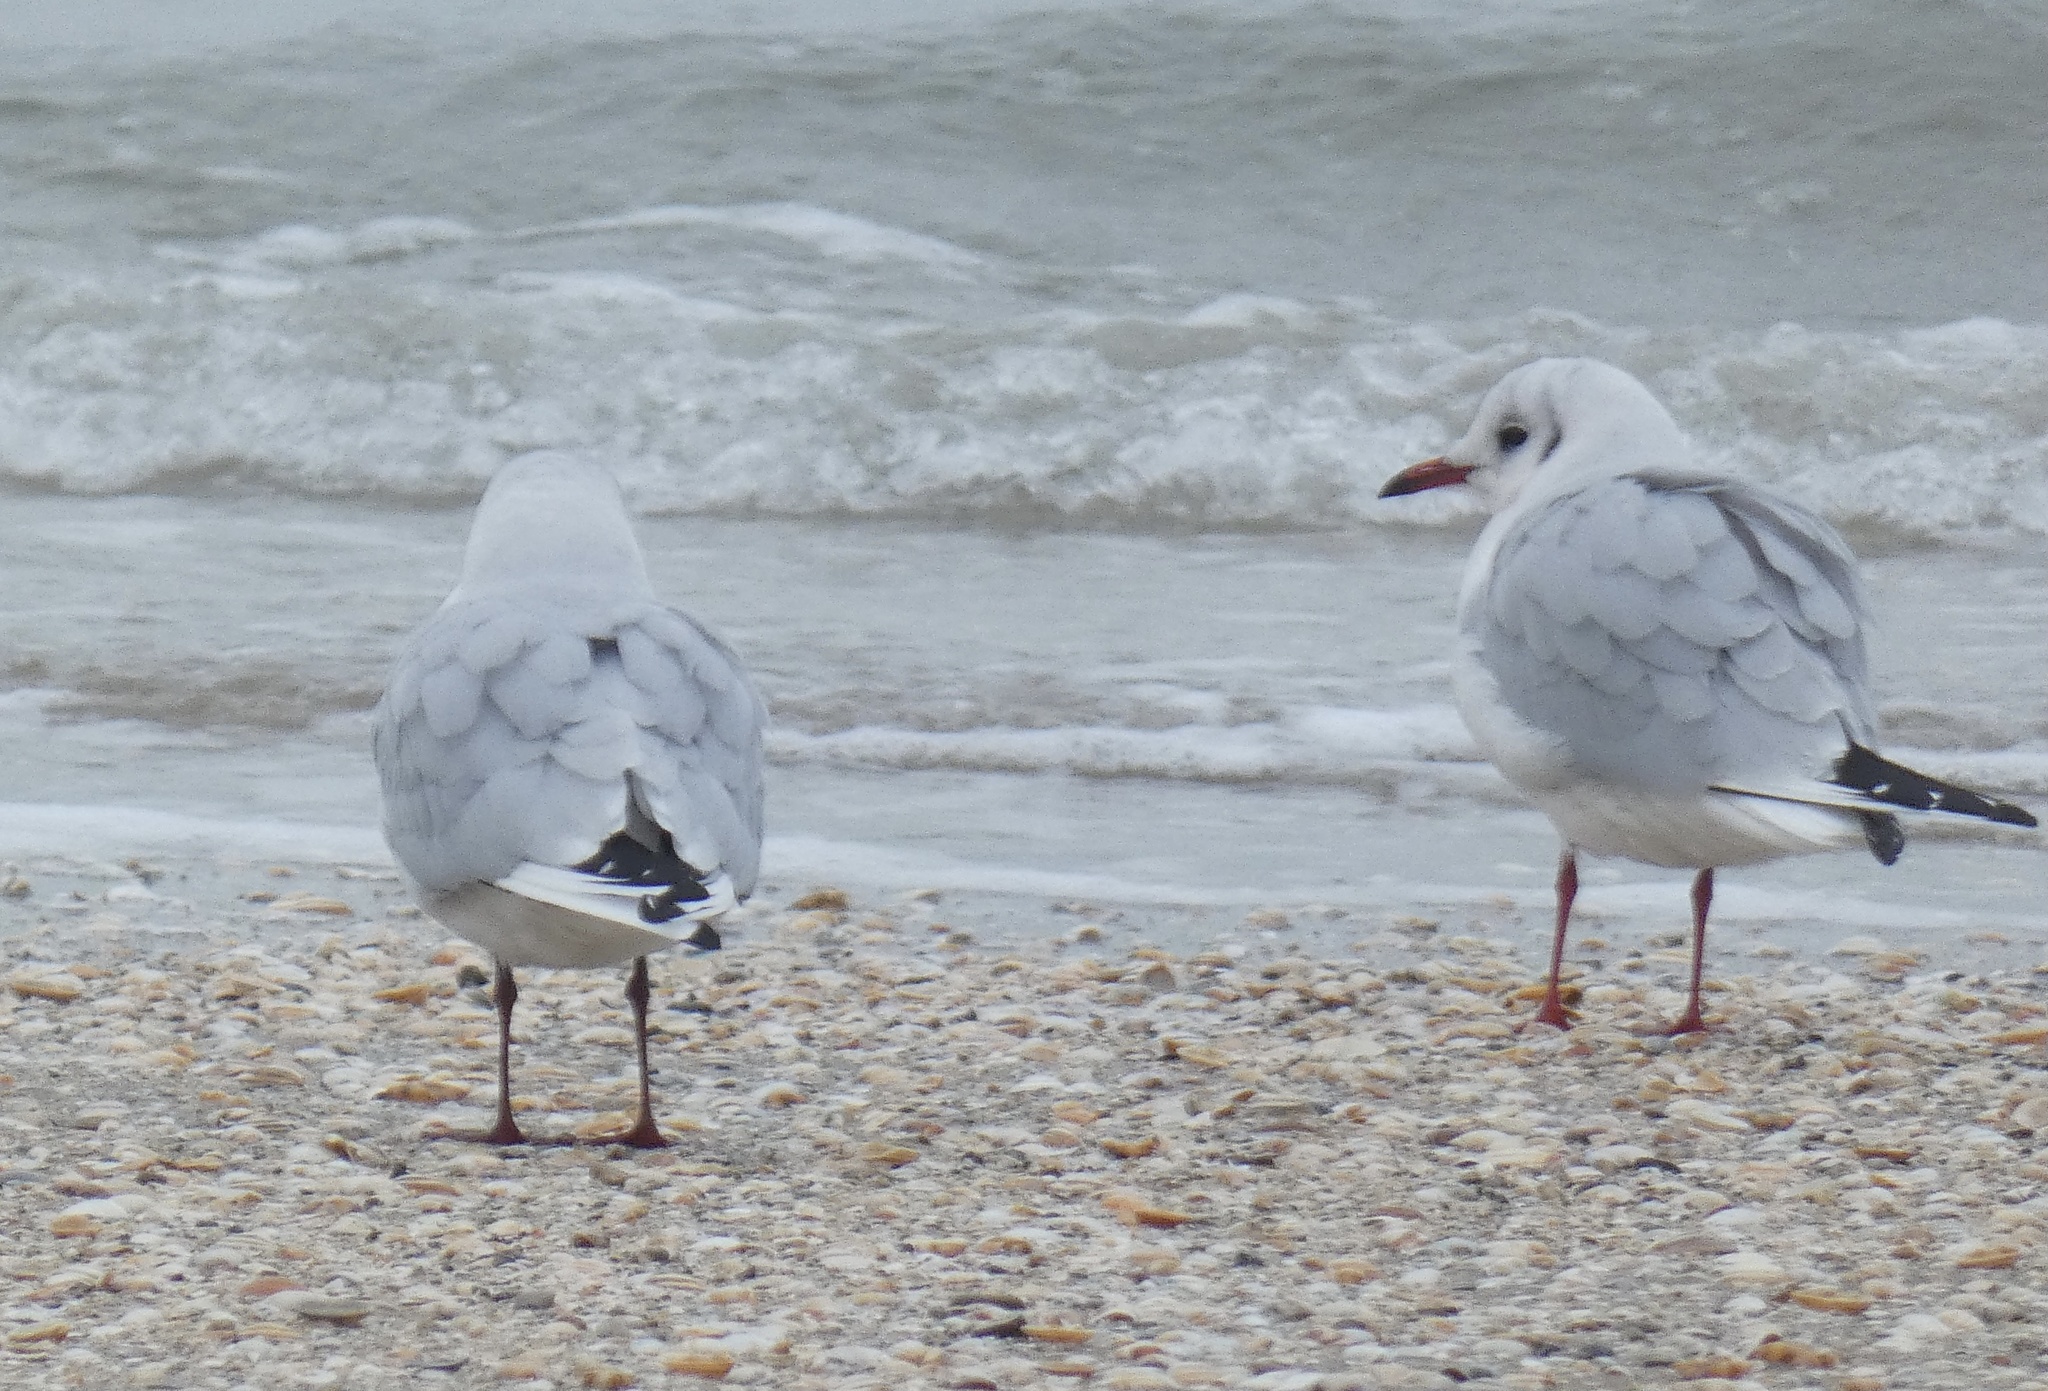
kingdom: Animalia
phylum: Chordata
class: Aves
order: Charadriiformes
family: Laridae
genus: Chroicocephalus
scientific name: Chroicocephalus ridibundus
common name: Black-headed gull
